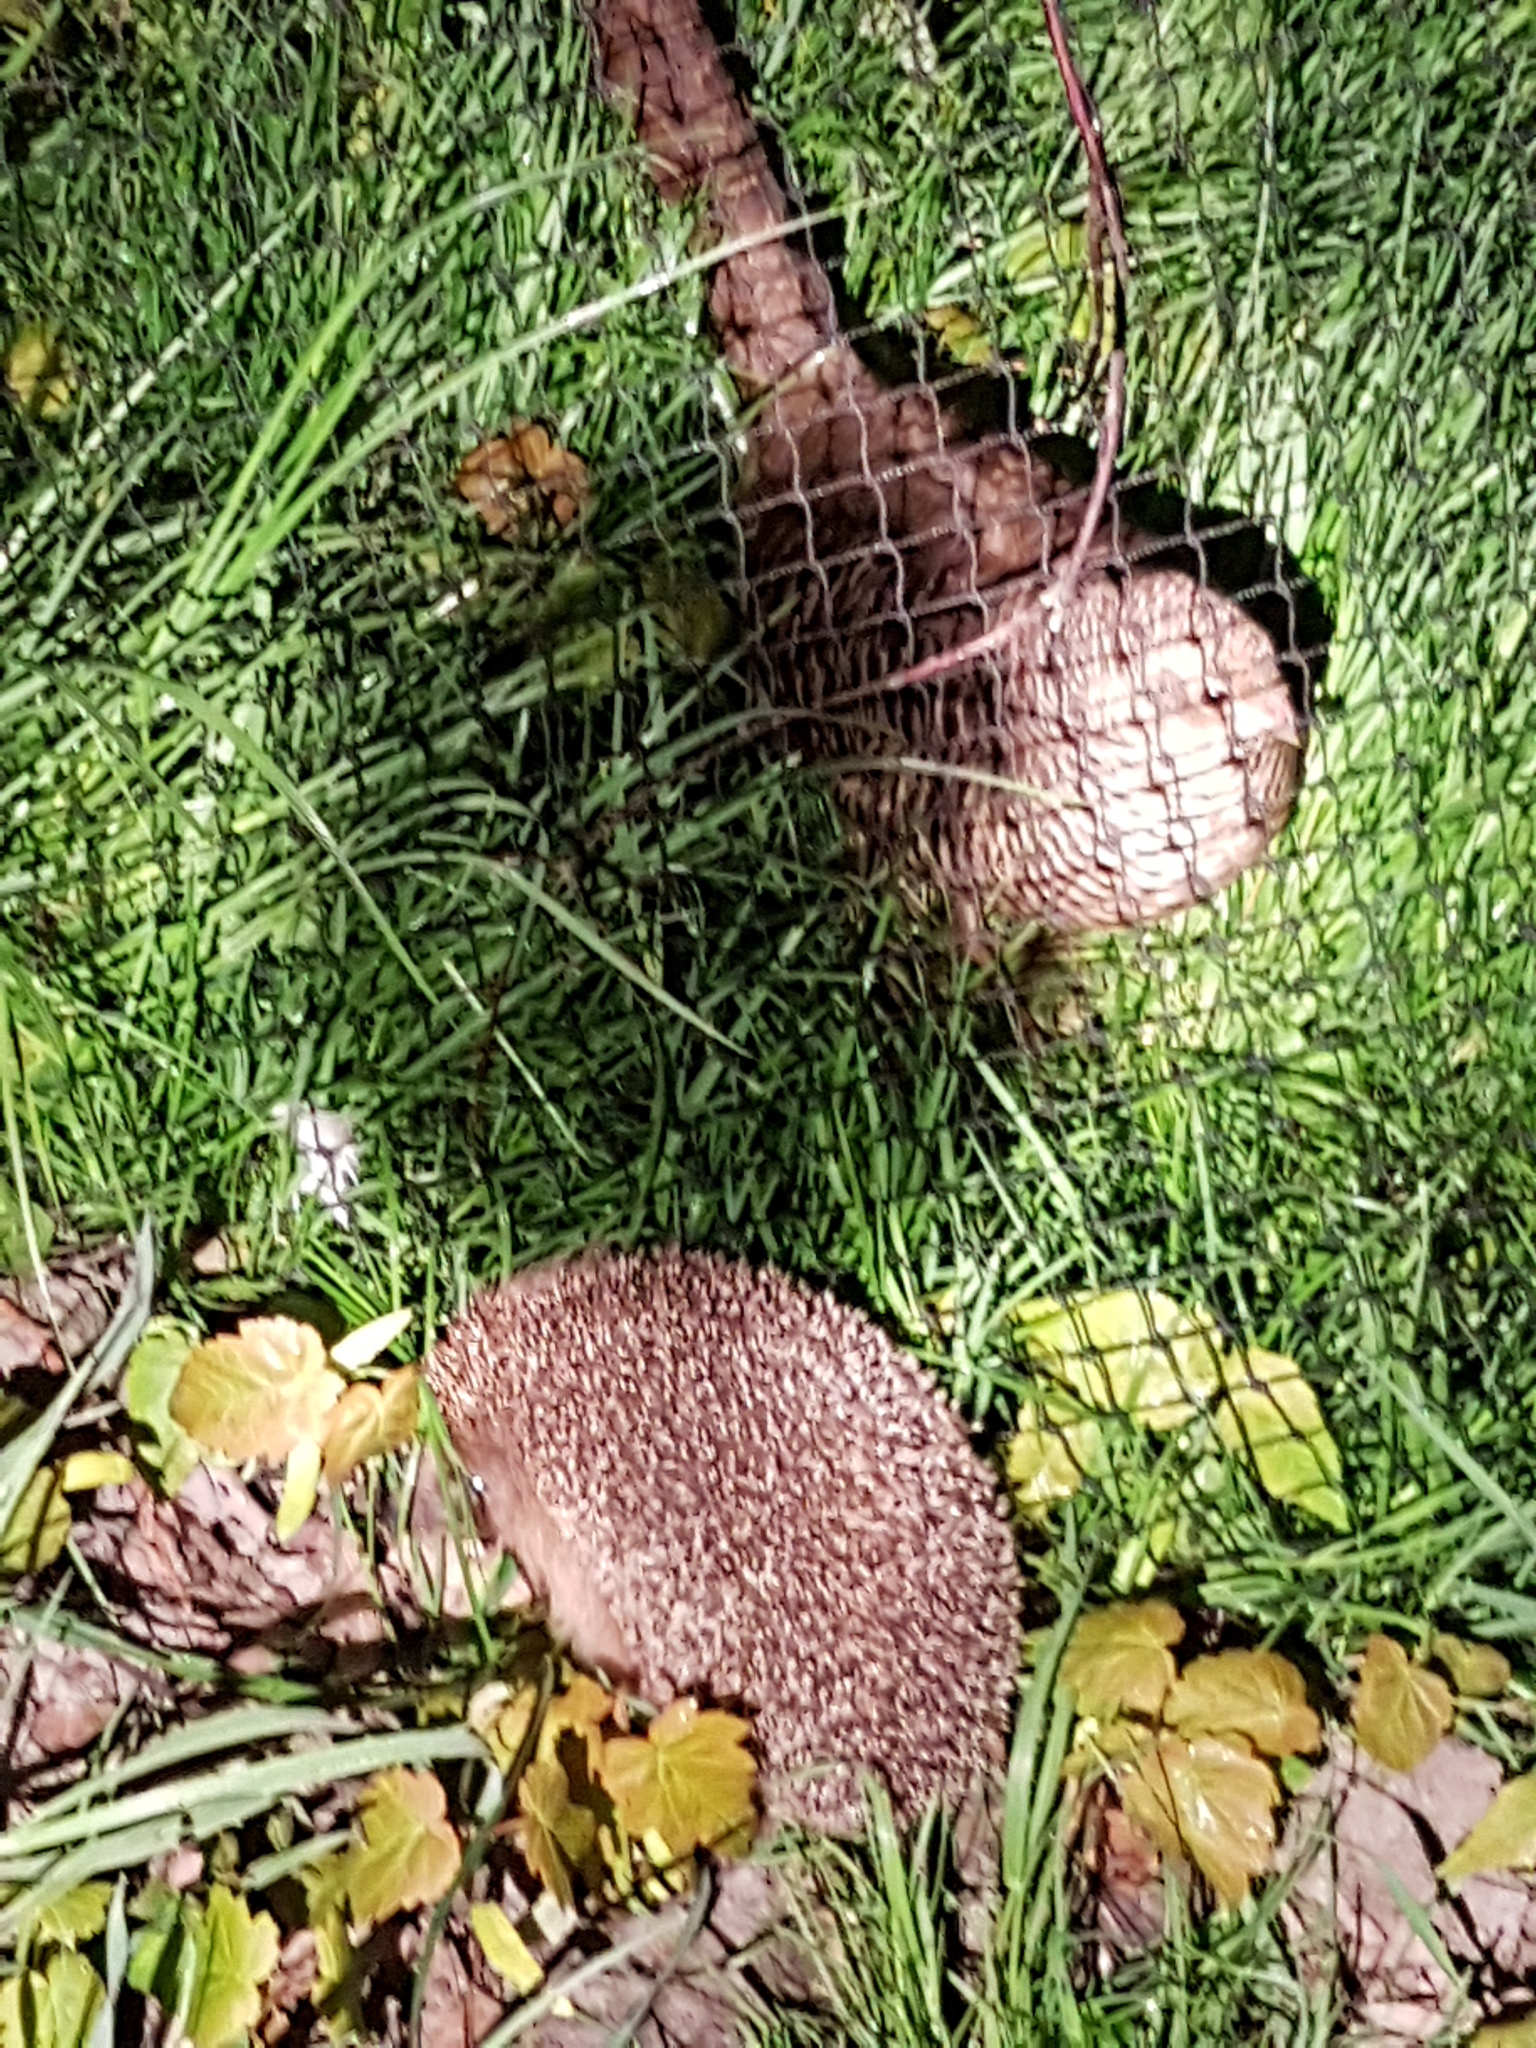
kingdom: Animalia
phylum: Chordata
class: Mammalia
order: Erinaceomorpha
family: Erinaceidae
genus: Erinaceus
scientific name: Erinaceus europaeus
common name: West european hedgehog
